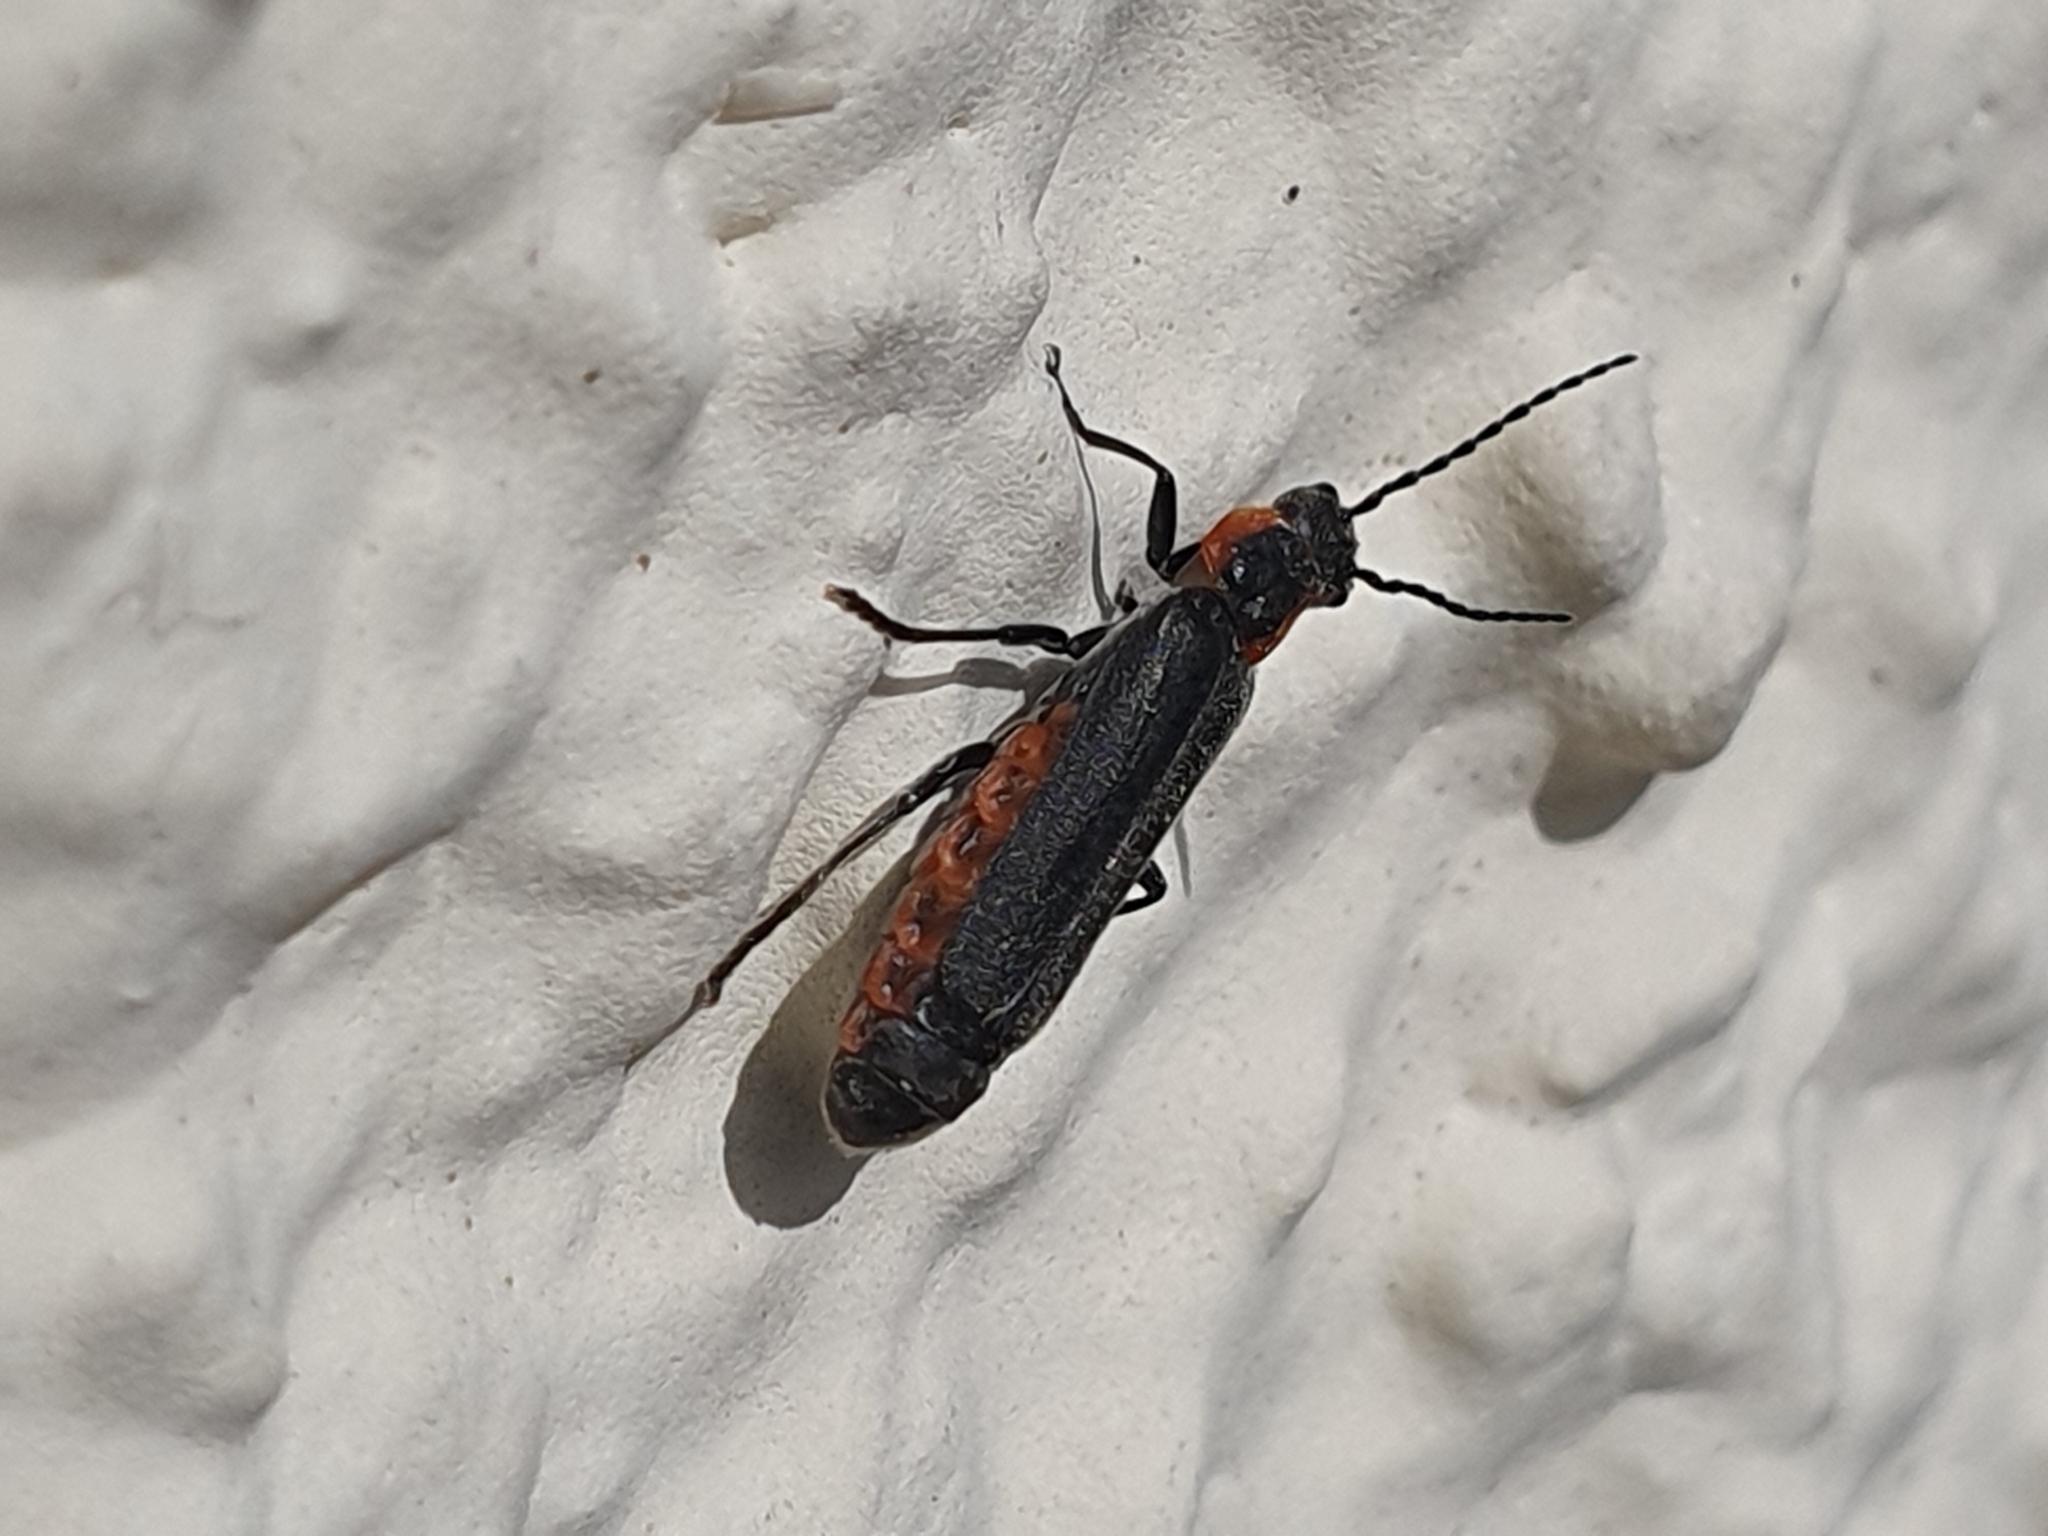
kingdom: Animalia
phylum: Arthropoda
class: Insecta
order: Coleoptera
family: Cantharidae
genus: Cantharis
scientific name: Cantharis pulicaria
